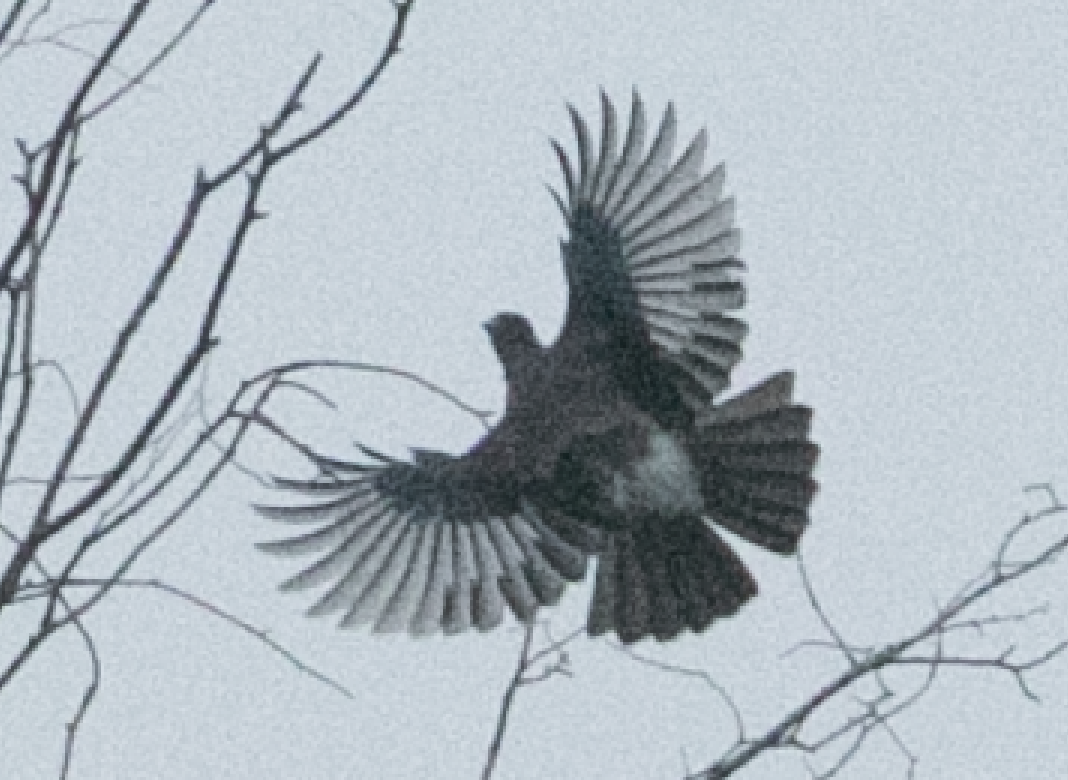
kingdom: Animalia
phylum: Chordata
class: Aves
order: Passeriformes
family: Corvidae
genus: Garrulus
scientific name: Garrulus glandarius
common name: Eurasian jay
